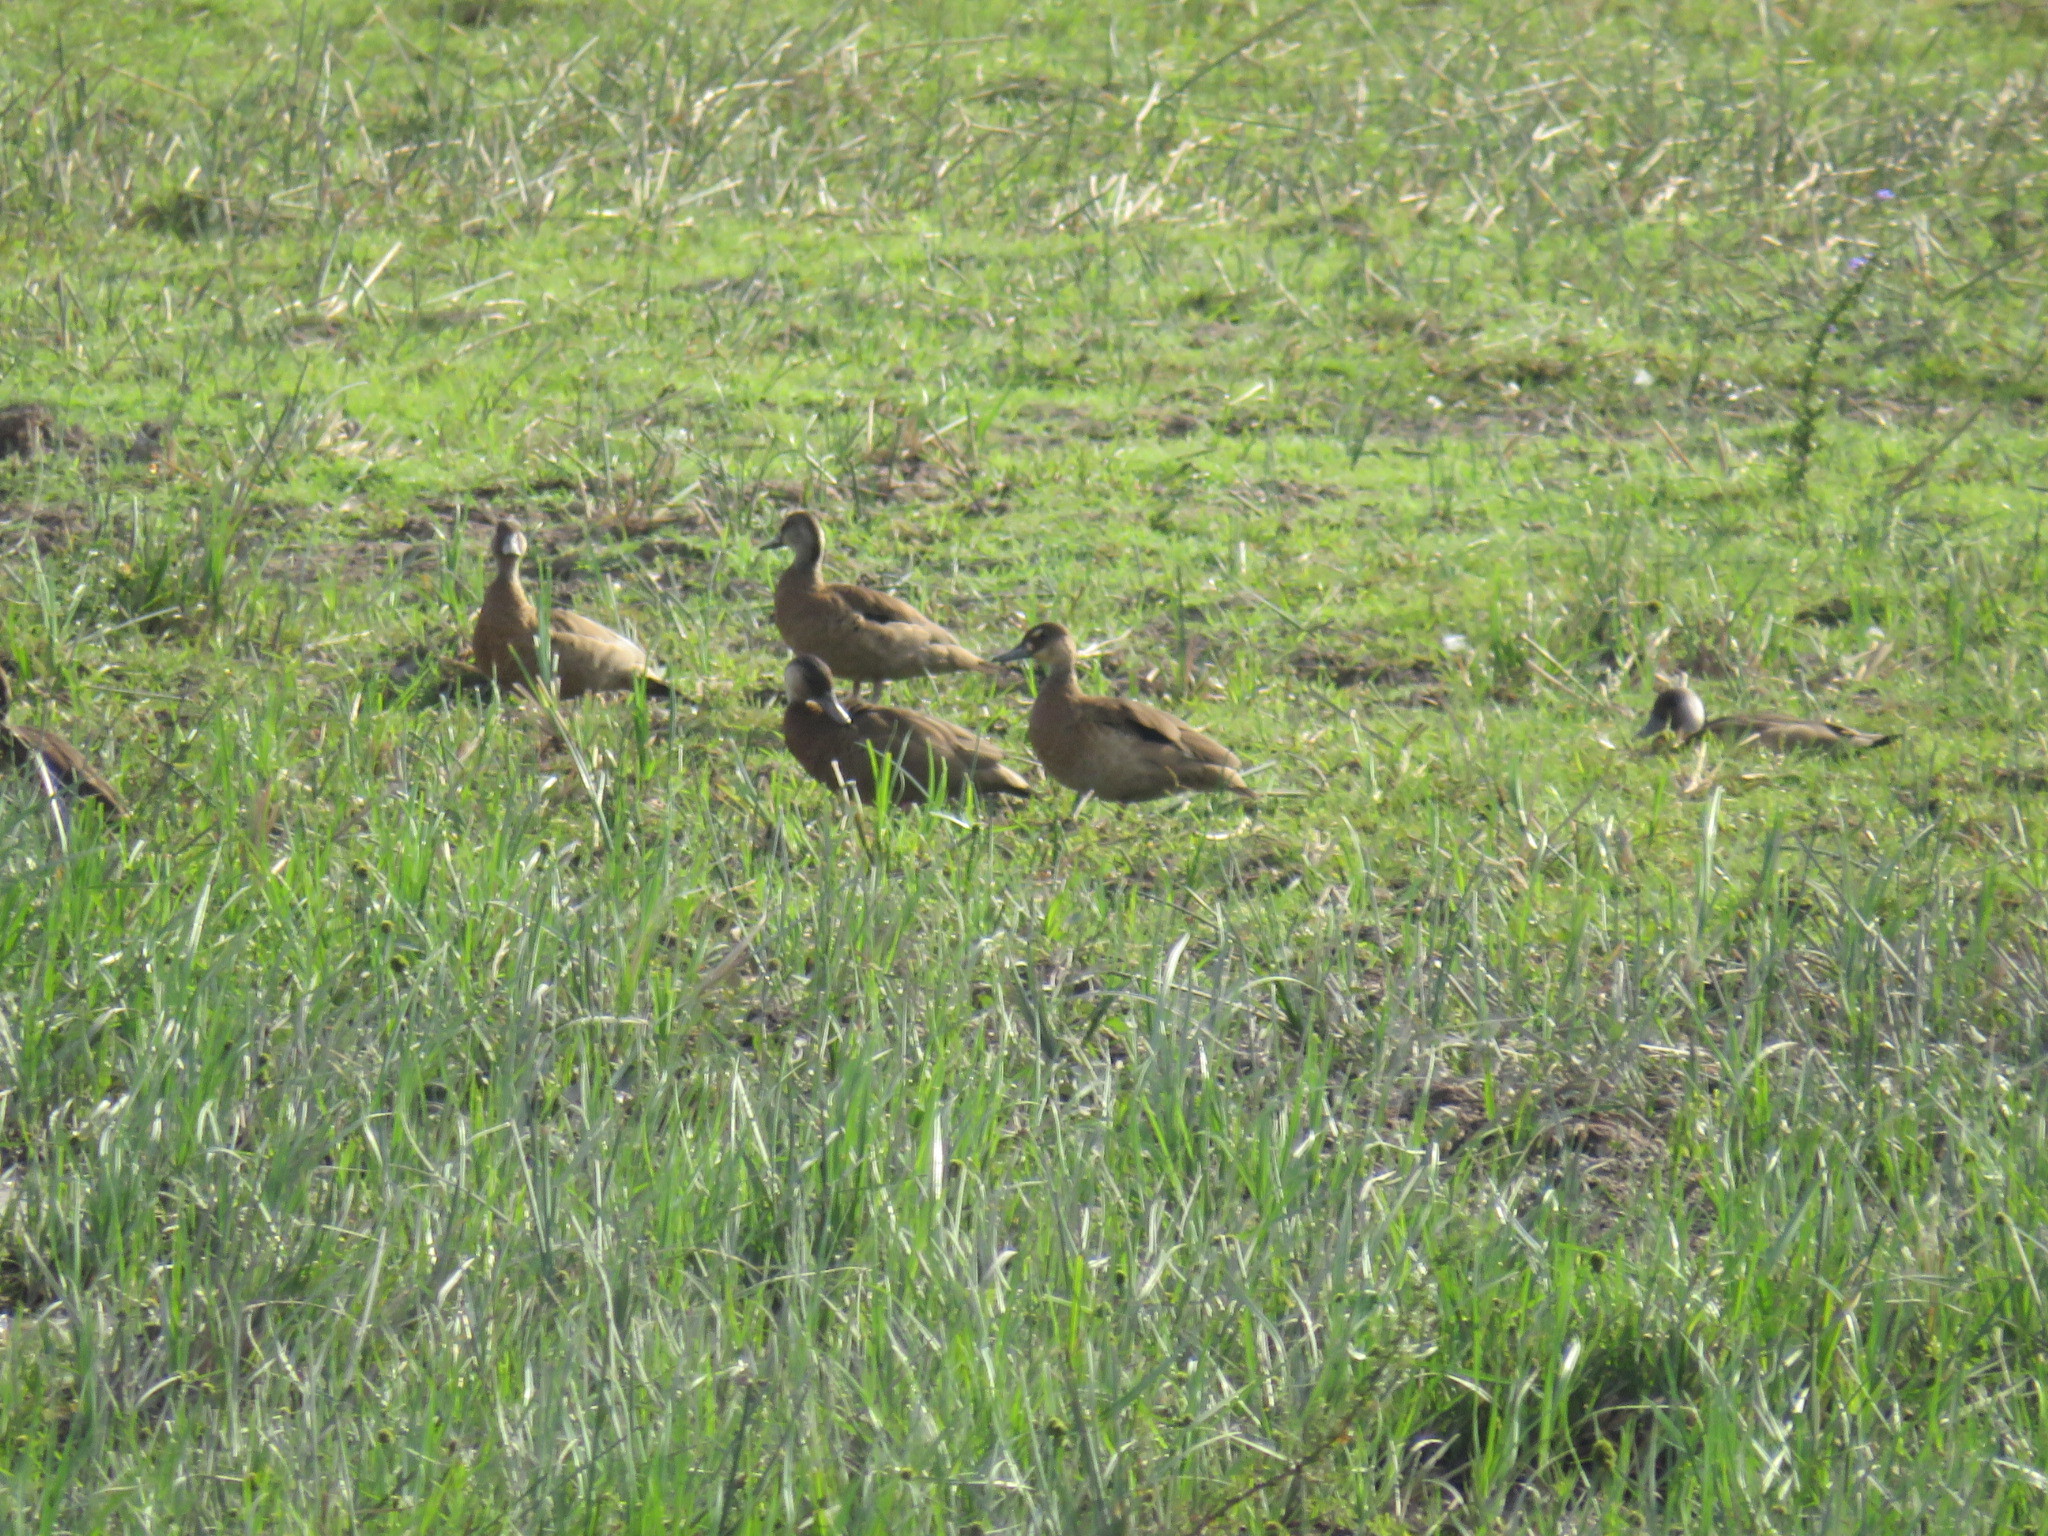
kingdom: Animalia
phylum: Chordata
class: Aves
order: Anseriformes
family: Anatidae
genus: Amazonetta
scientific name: Amazonetta brasiliensis
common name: Brazilian teal
